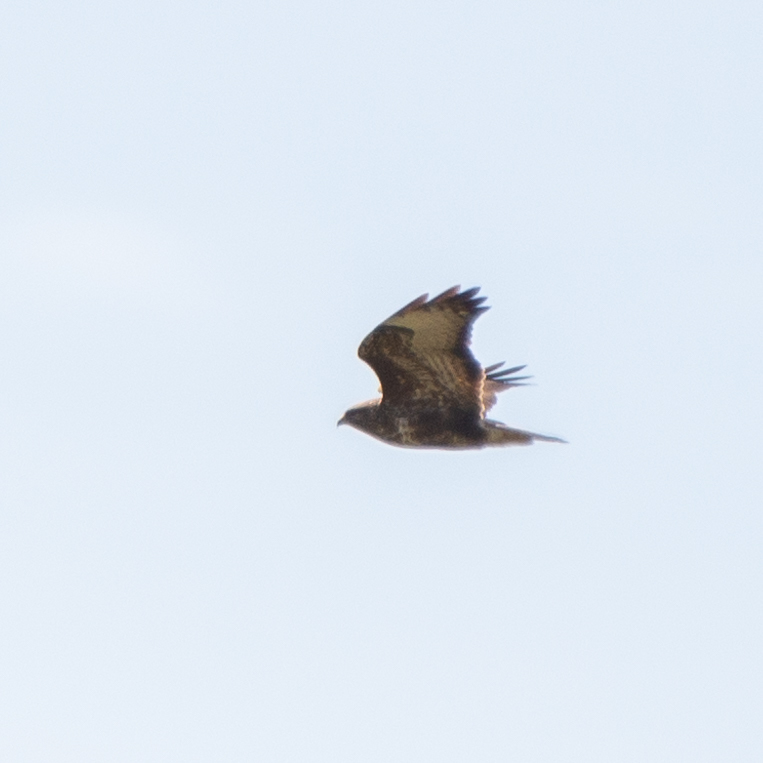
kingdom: Animalia
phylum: Chordata
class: Aves
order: Accipitriformes
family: Accipitridae
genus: Buteo
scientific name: Buteo buteo
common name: Common buzzard
